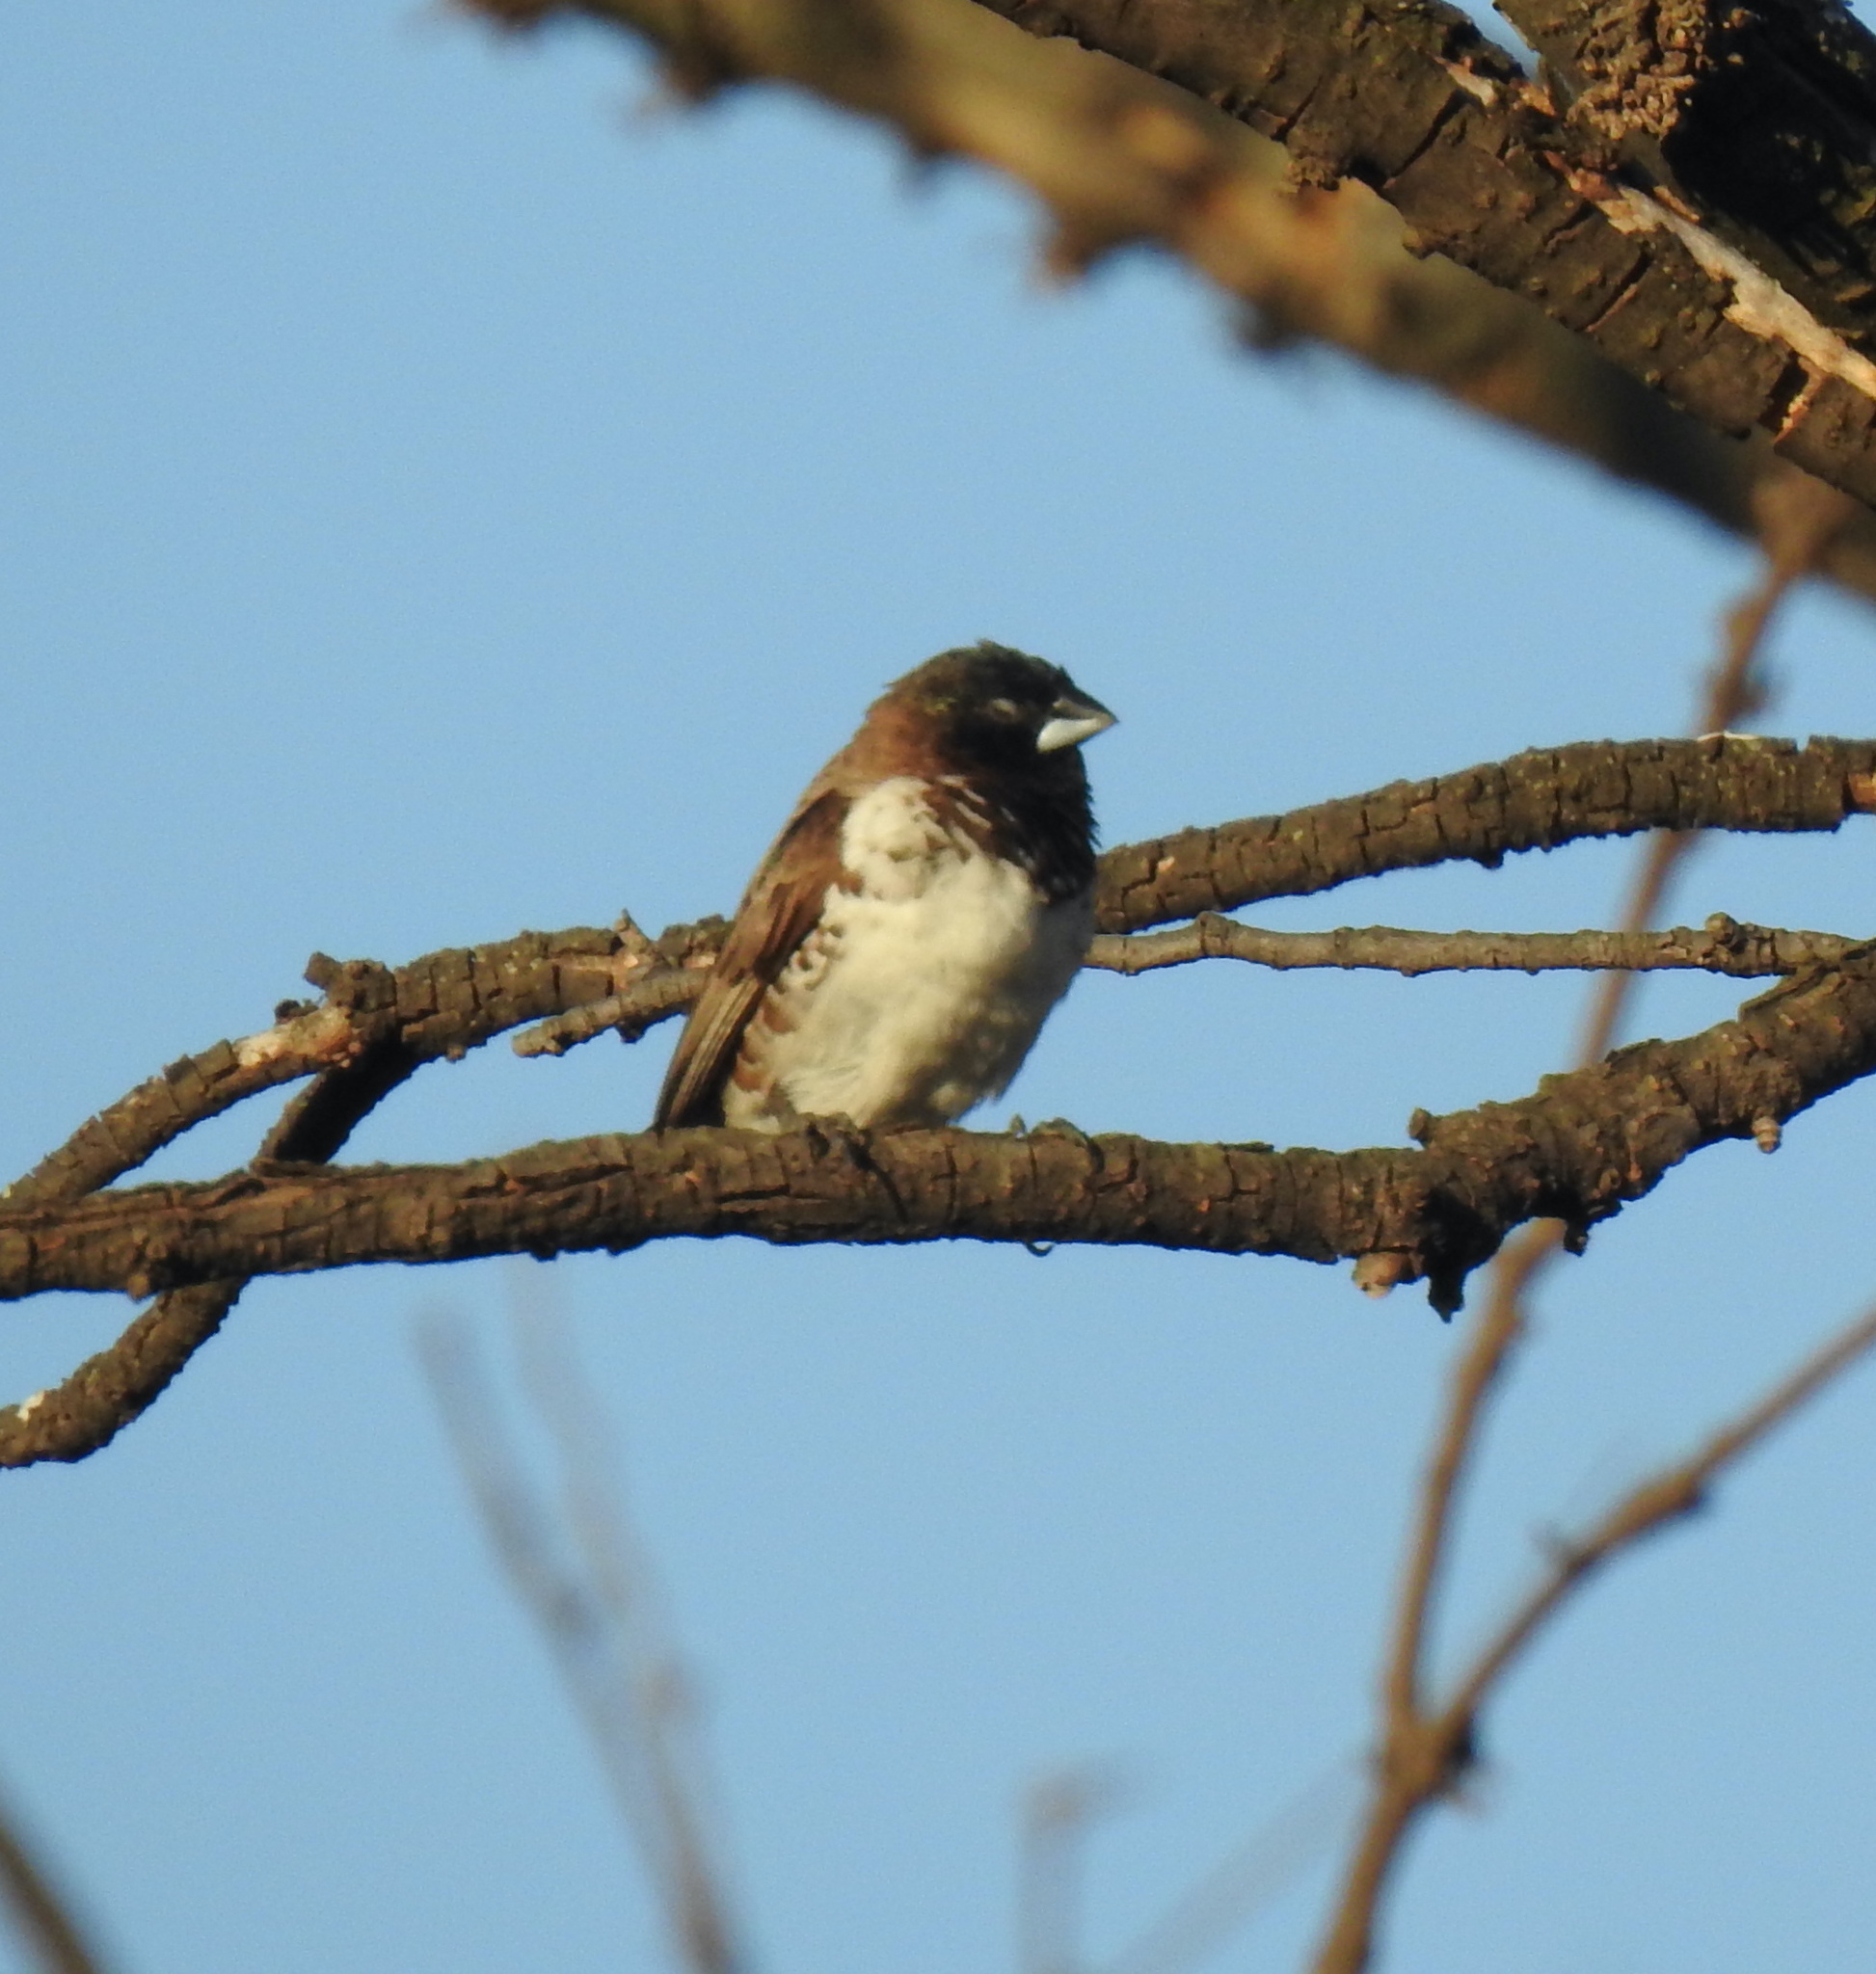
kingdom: Animalia
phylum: Chordata
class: Aves
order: Passeriformes
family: Estrildidae
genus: Lonchura
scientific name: Lonchura cucullata
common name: Bronze mannikin
